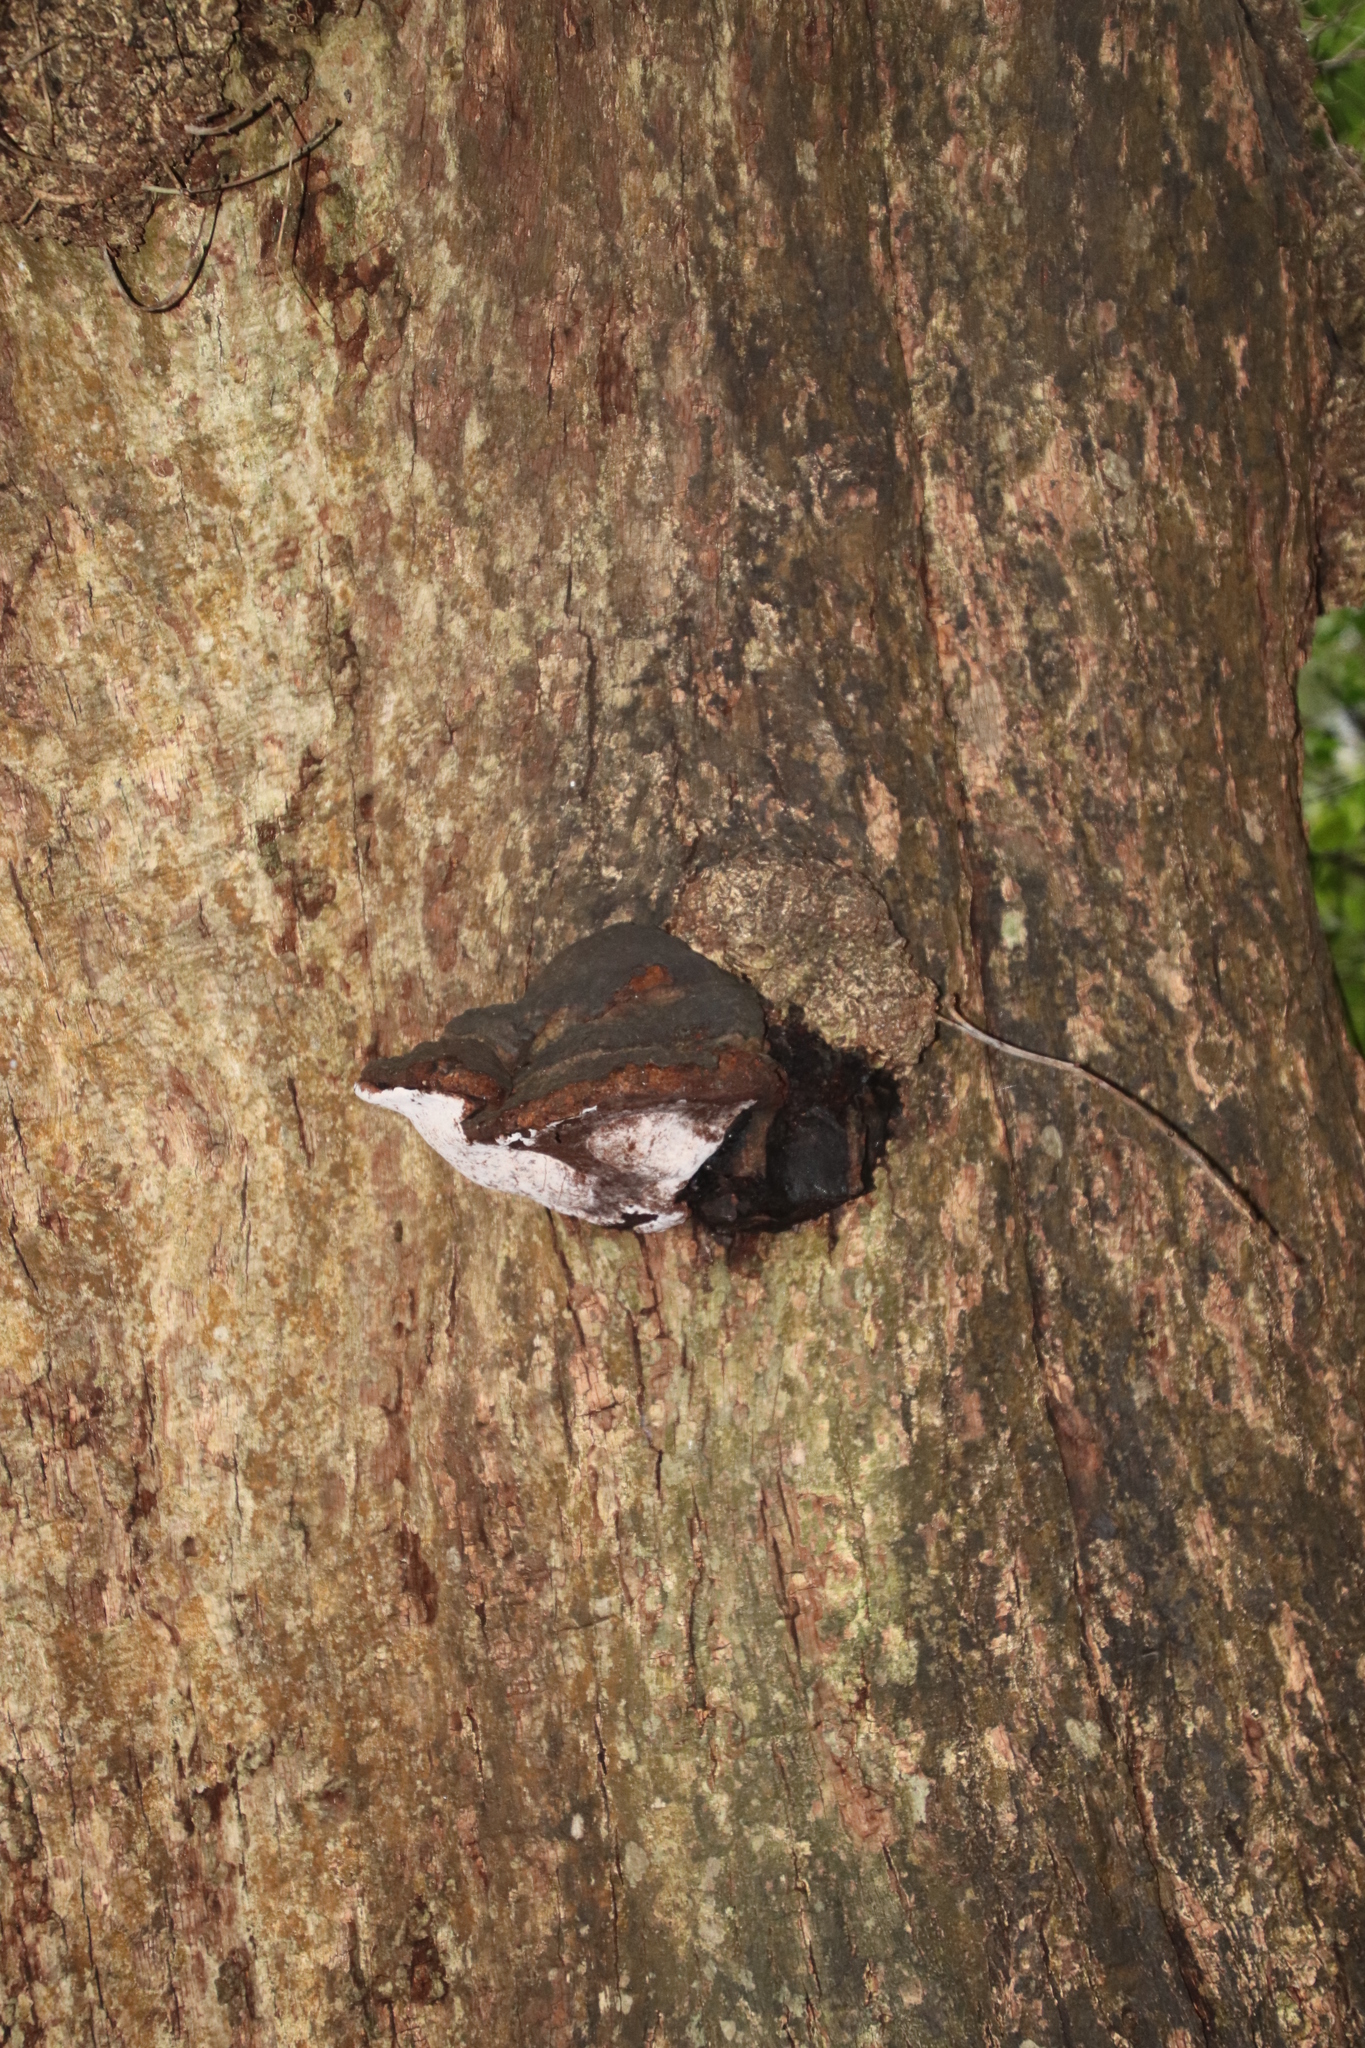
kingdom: Fungi
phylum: Basidiomycota
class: Agaricomycetes
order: Hymenochaetales
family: Hymenochaetaceae
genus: Pseudoinonotus
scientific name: Pseudoinonotus dryadeus
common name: Oak bracket
